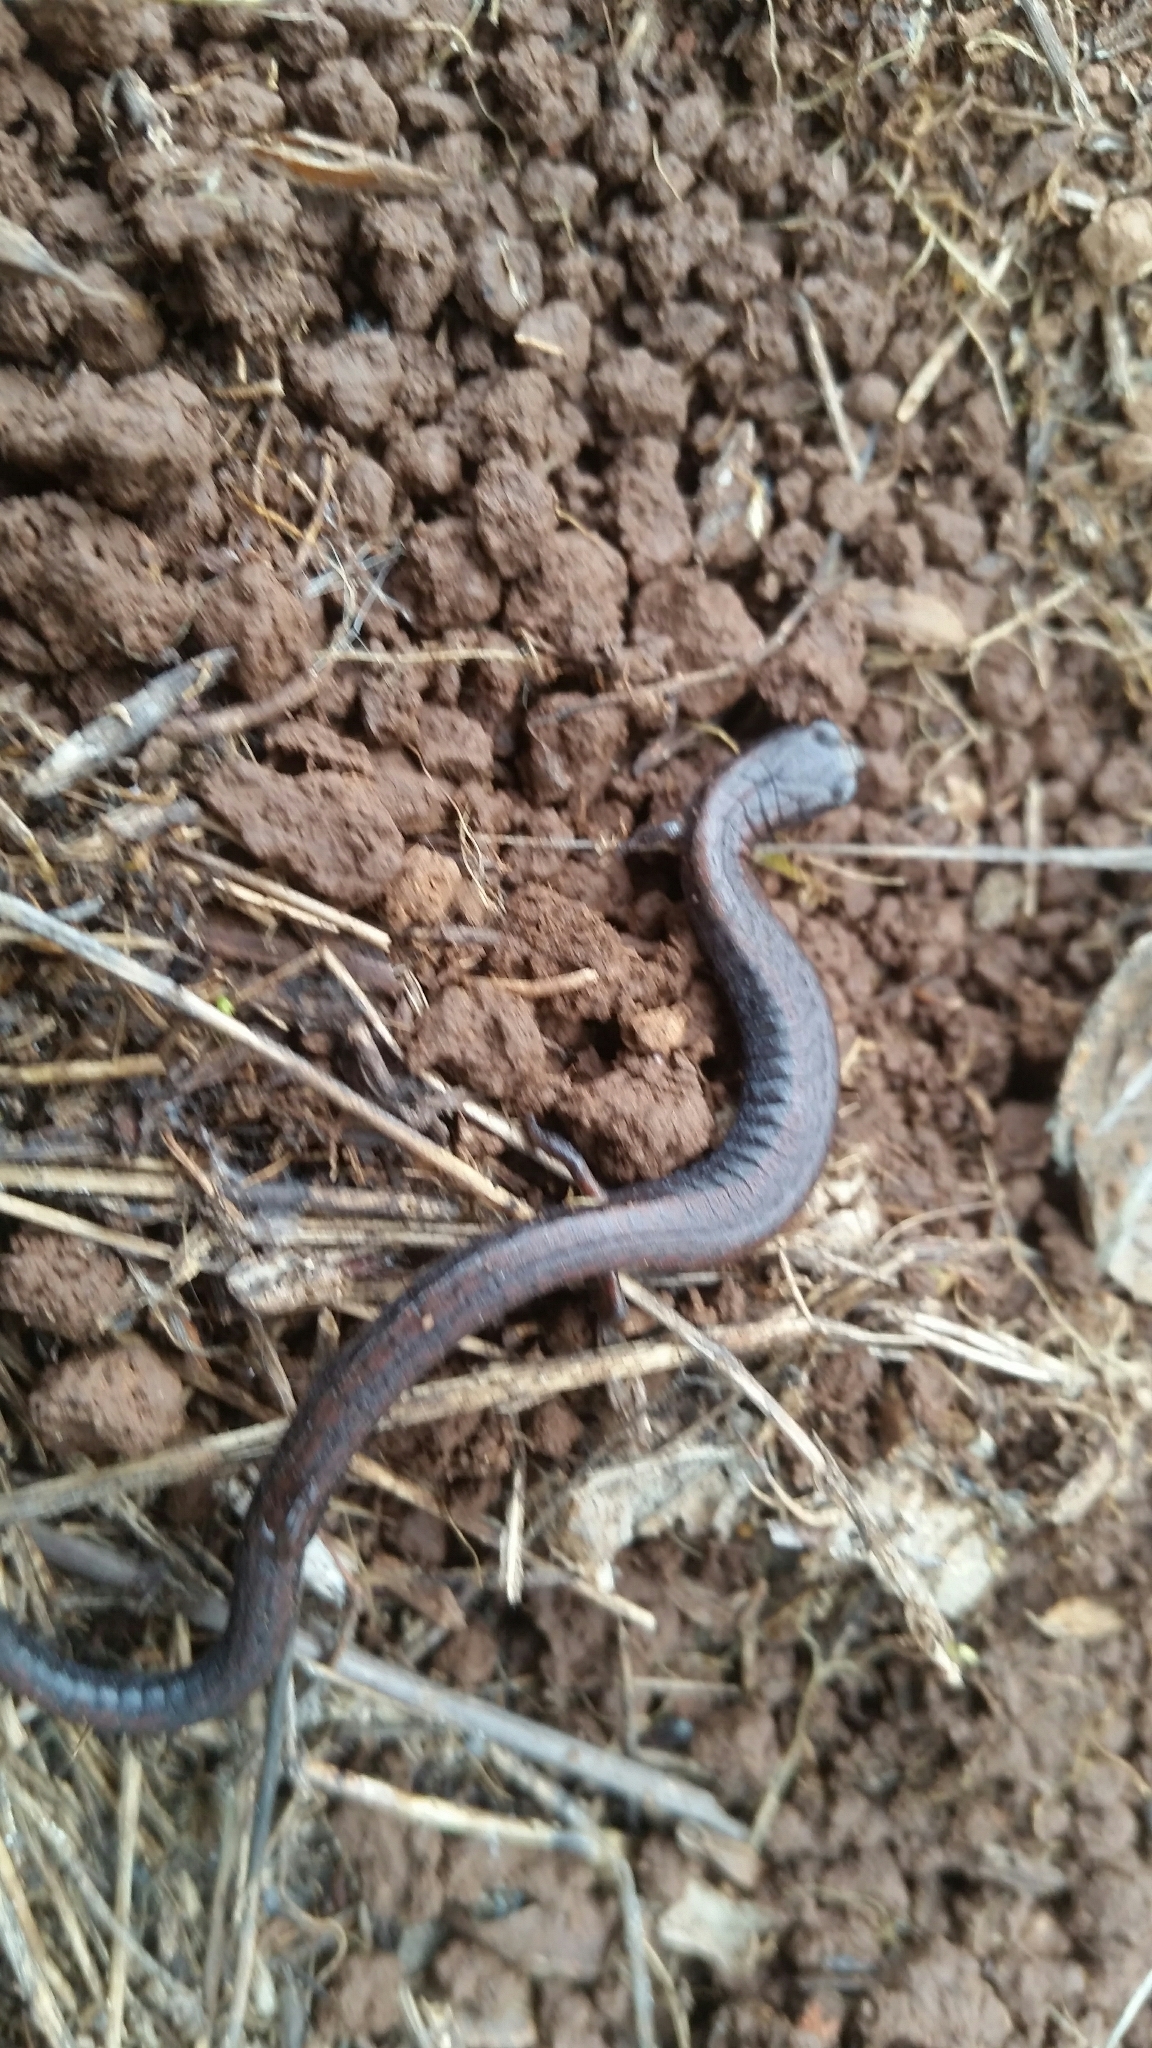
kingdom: Animalia
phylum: Chordata
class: Amphibia
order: Caudata
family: Plethodontidae
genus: Batrachoseps
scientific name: Batrachoseps attenuatus
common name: California slender salamander
